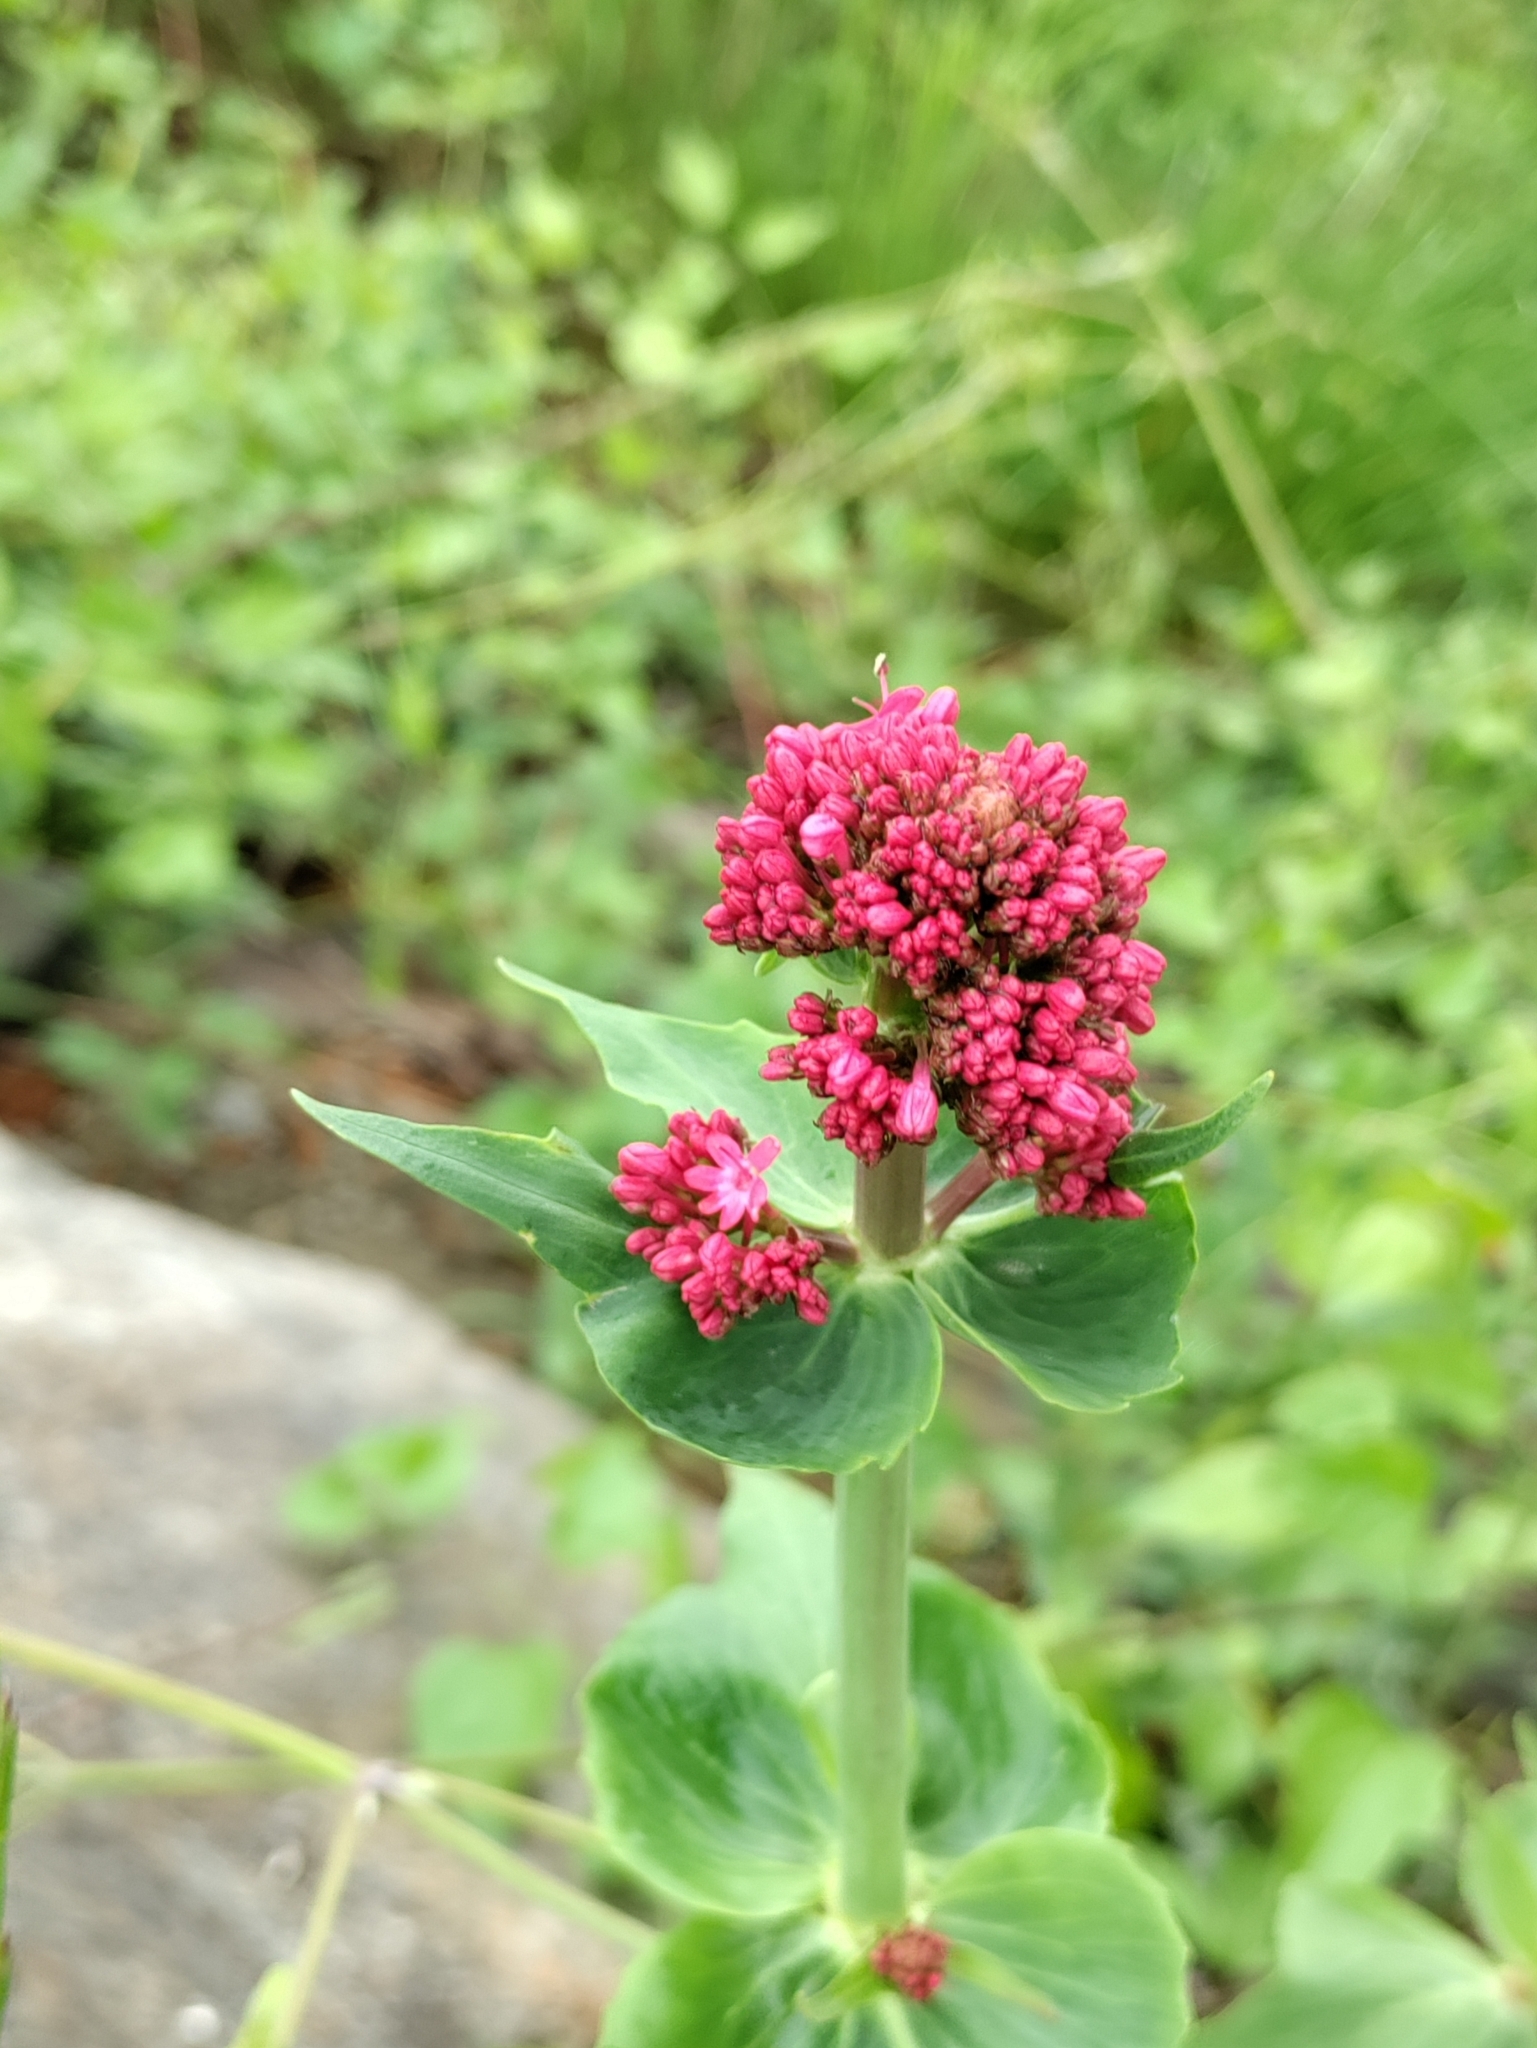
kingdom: Plantae
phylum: Tracheophyta
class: Magnoliopsida
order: Dipsacales
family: Caprifoliaceae
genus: Centranthus
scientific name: Centranthus ruber
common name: Red valerian
